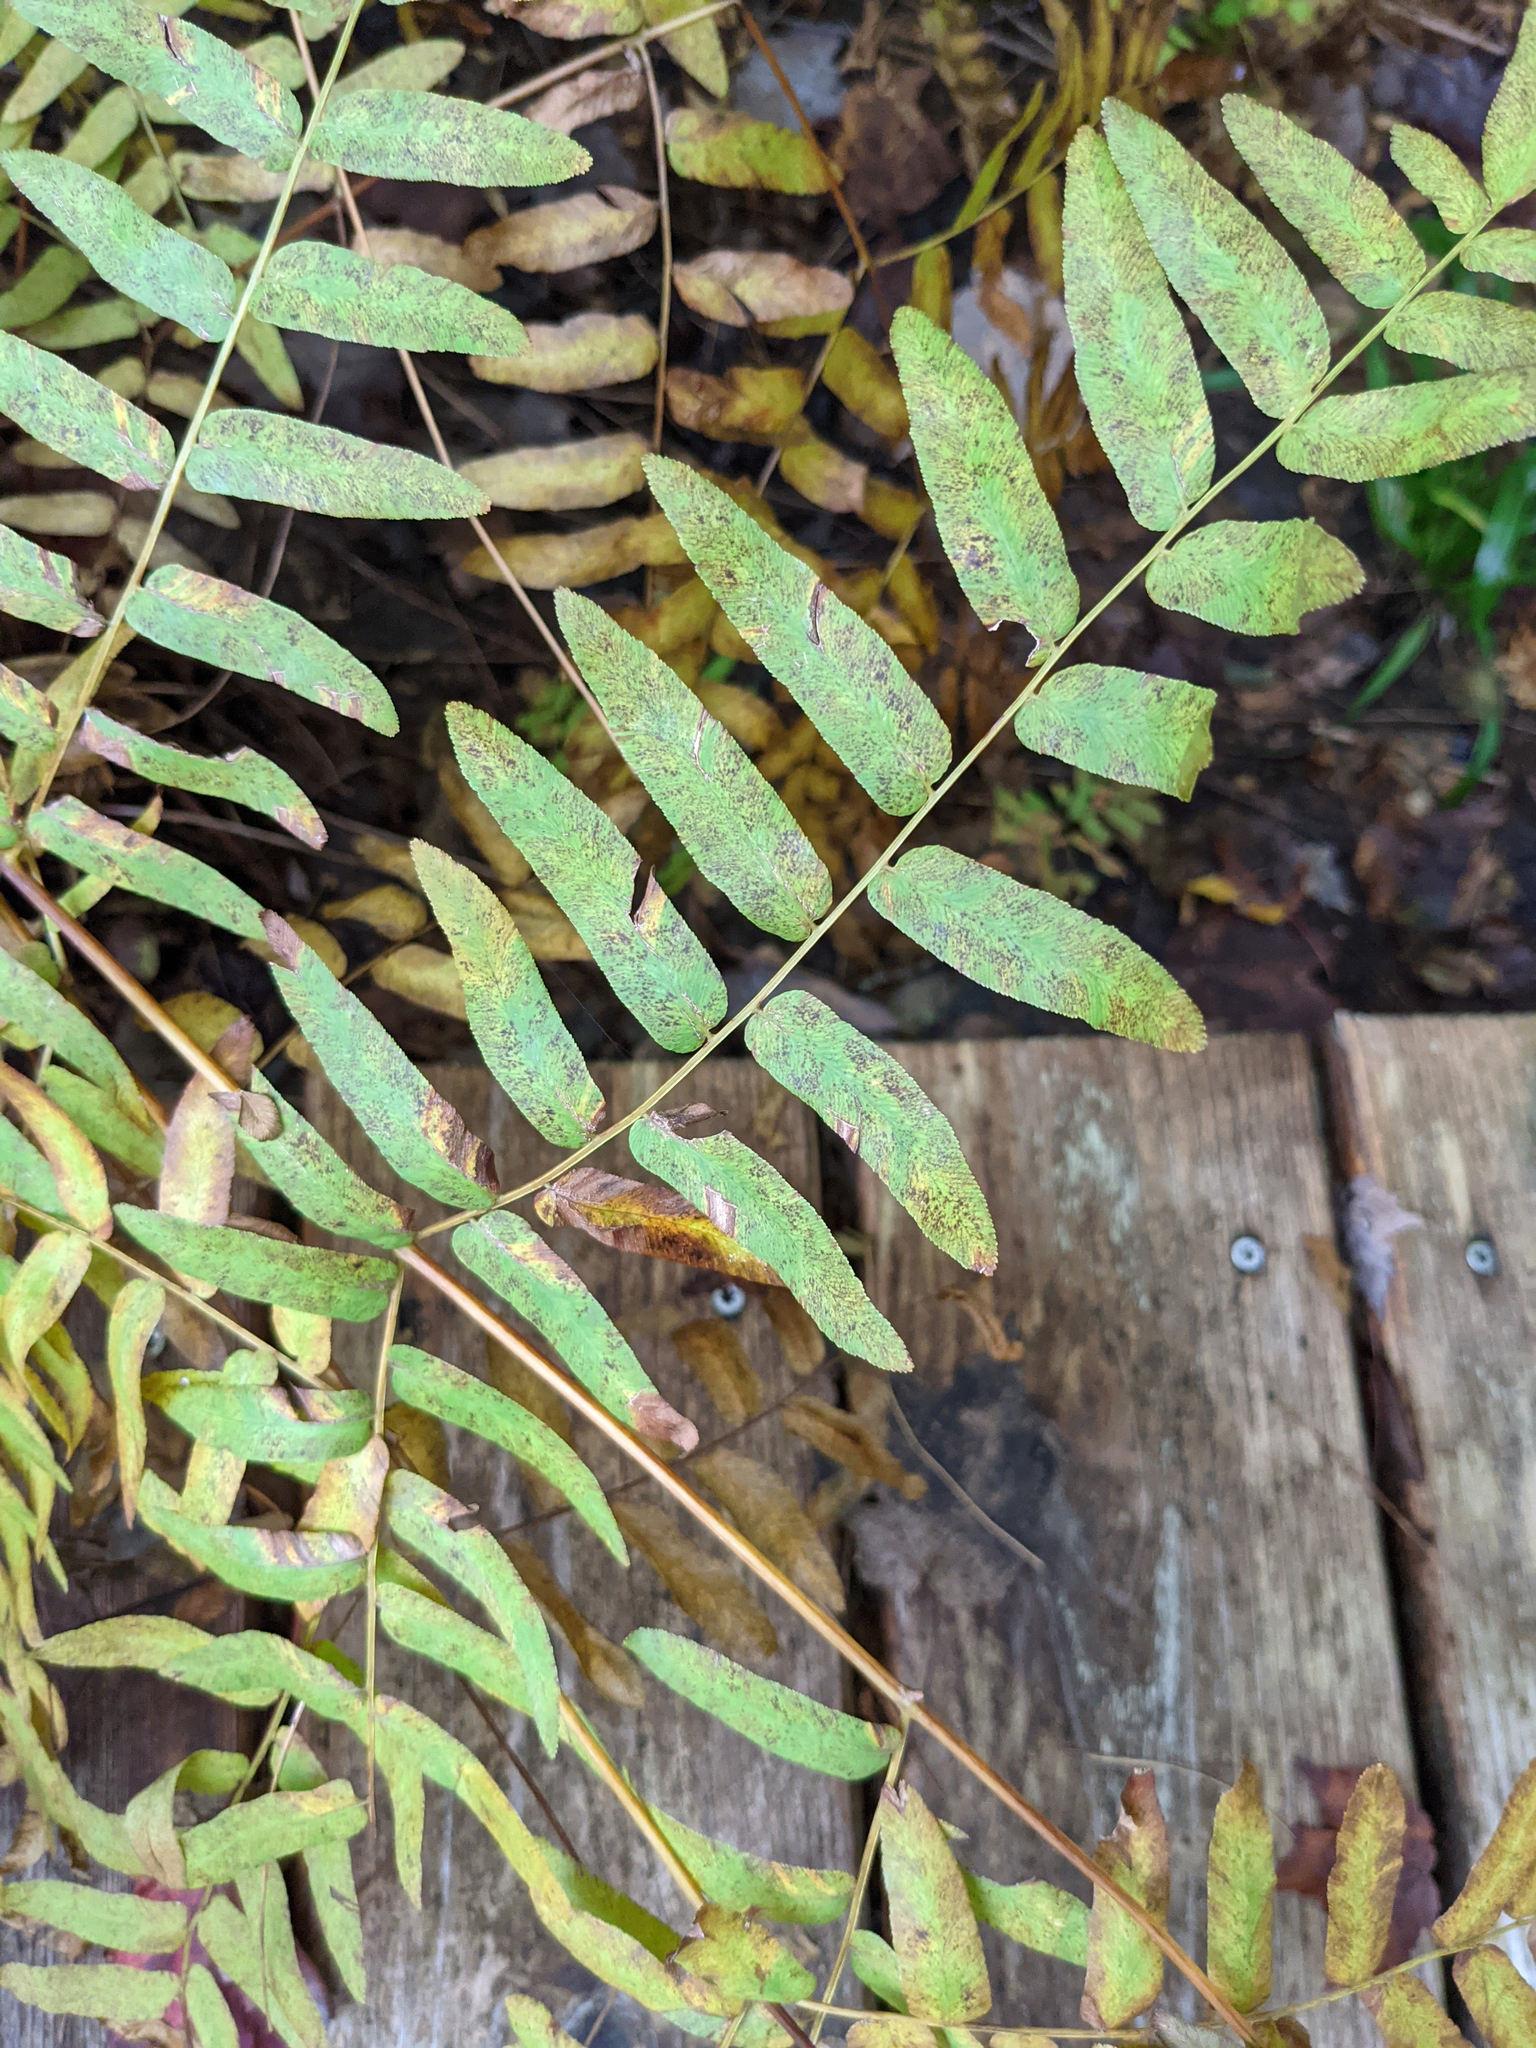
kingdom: Plantae
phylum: Tracheophyta
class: Polypodiopsida
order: Osmundales
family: Osmundaceae
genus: Osmunda
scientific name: Osmunda spectabilis
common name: American royal fern
